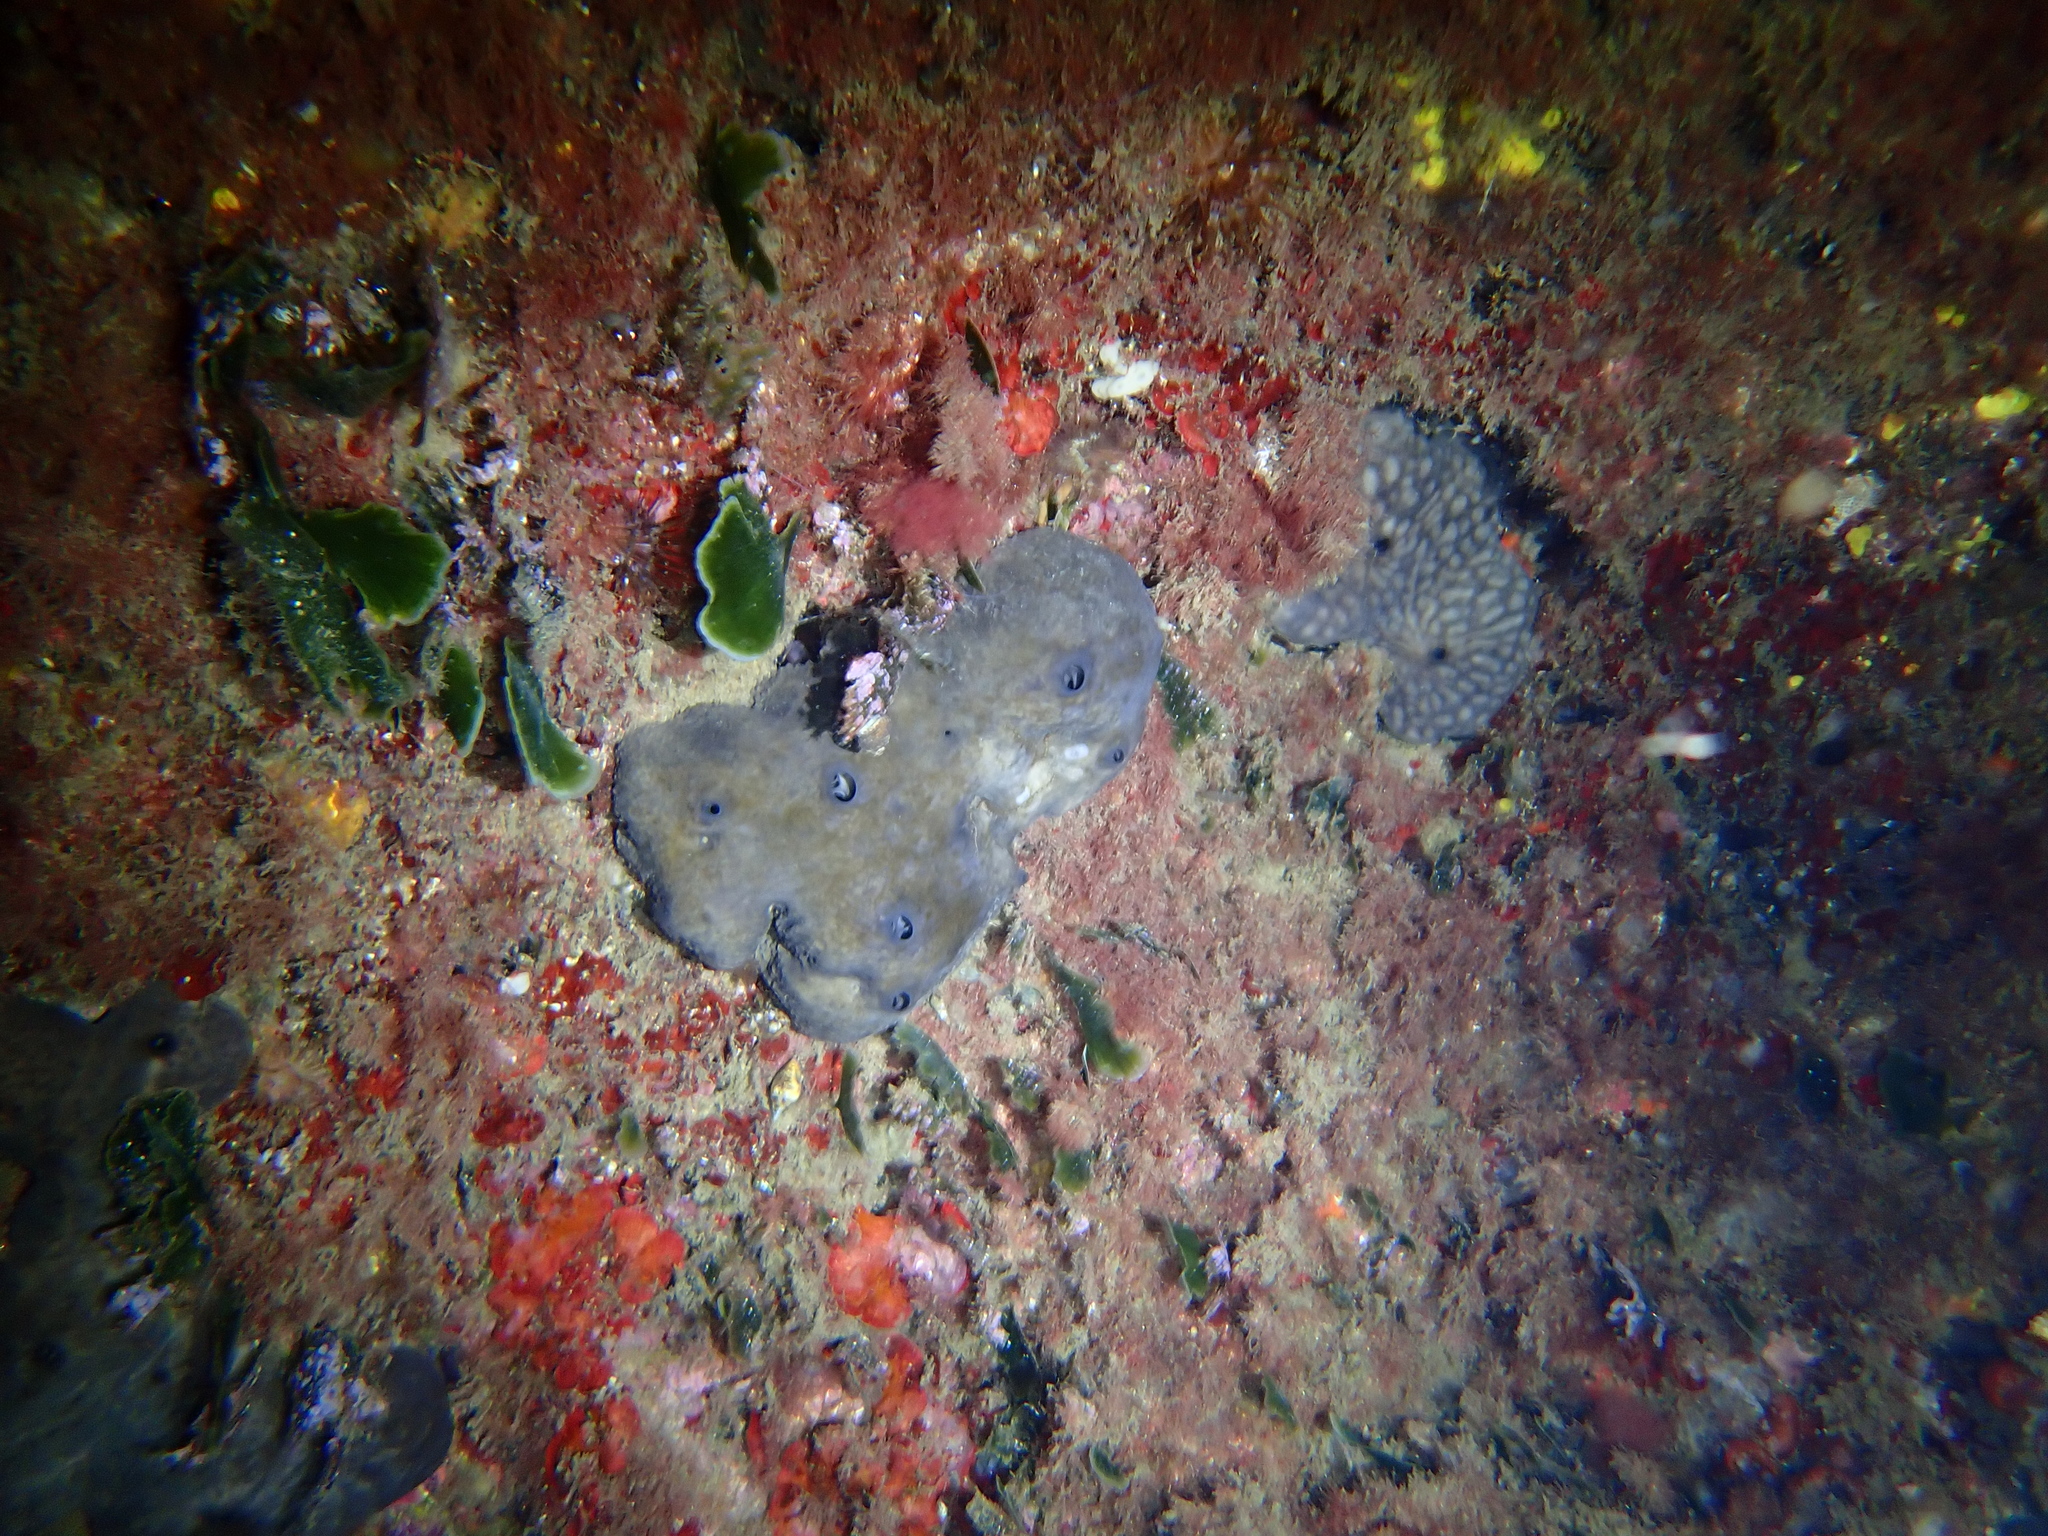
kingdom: Animalia
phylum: Porifera
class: Demospongiae
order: Chondrosiida
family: Chondrosiidae
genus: Chondrosia
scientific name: Chondrosia reniformis
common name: Chicken liver sponge
